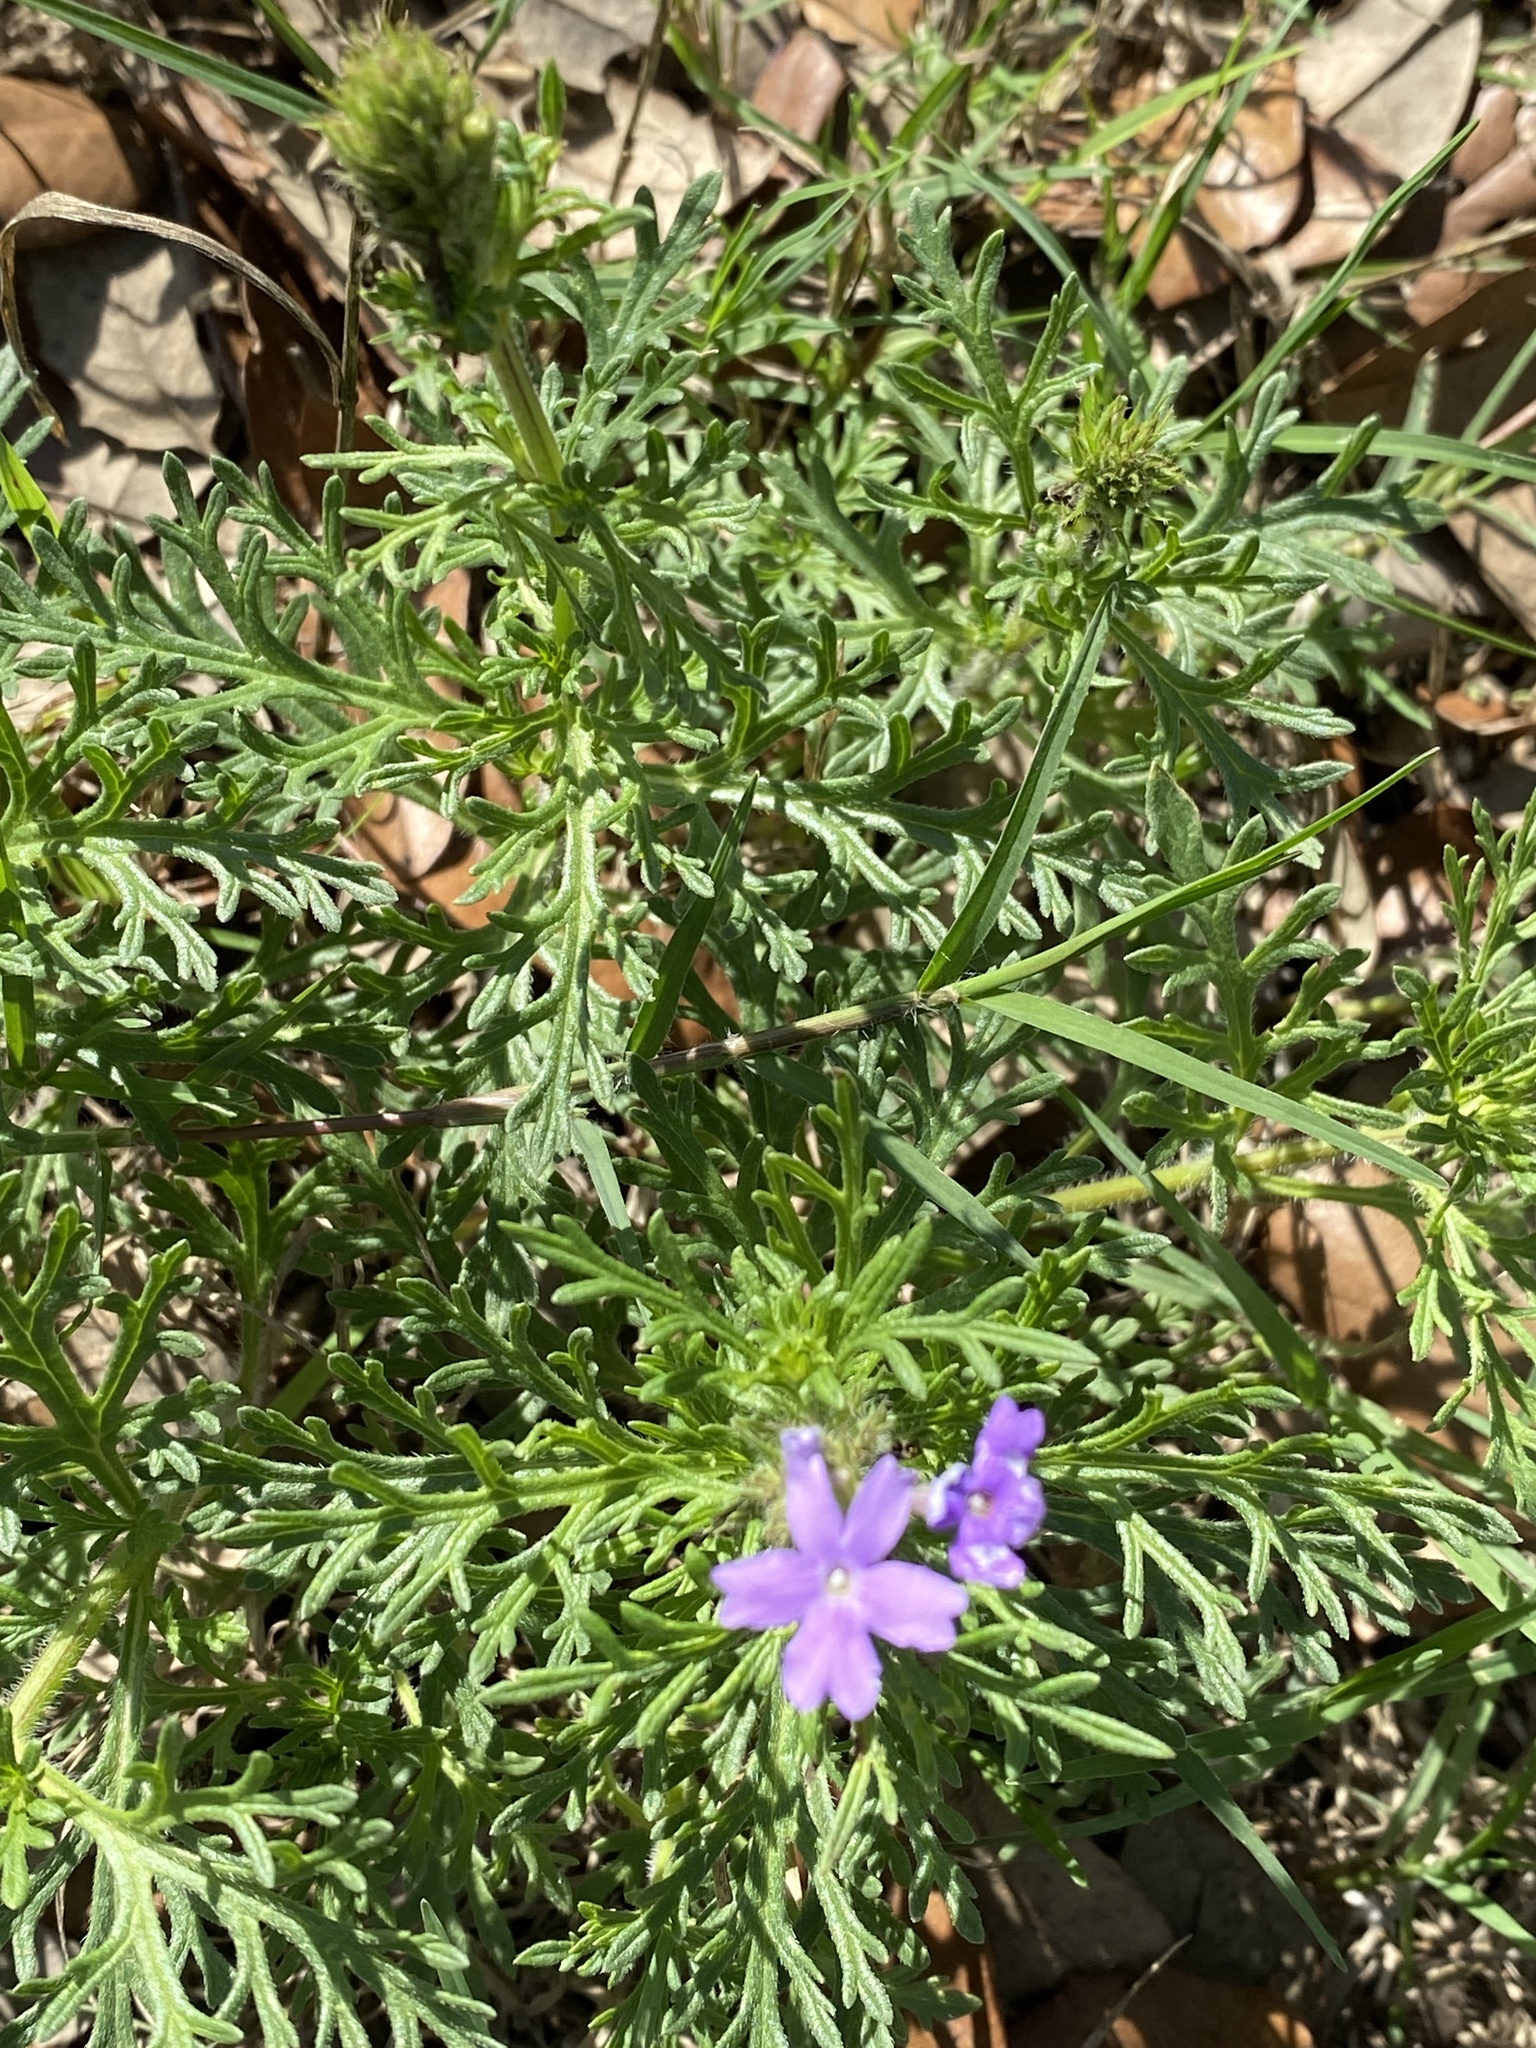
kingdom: Plantae
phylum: Tracheophyta
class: Magnoliopsida
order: Lamiales
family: Verbenaceae
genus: Verbena
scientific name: Verbena bipinnatifida
